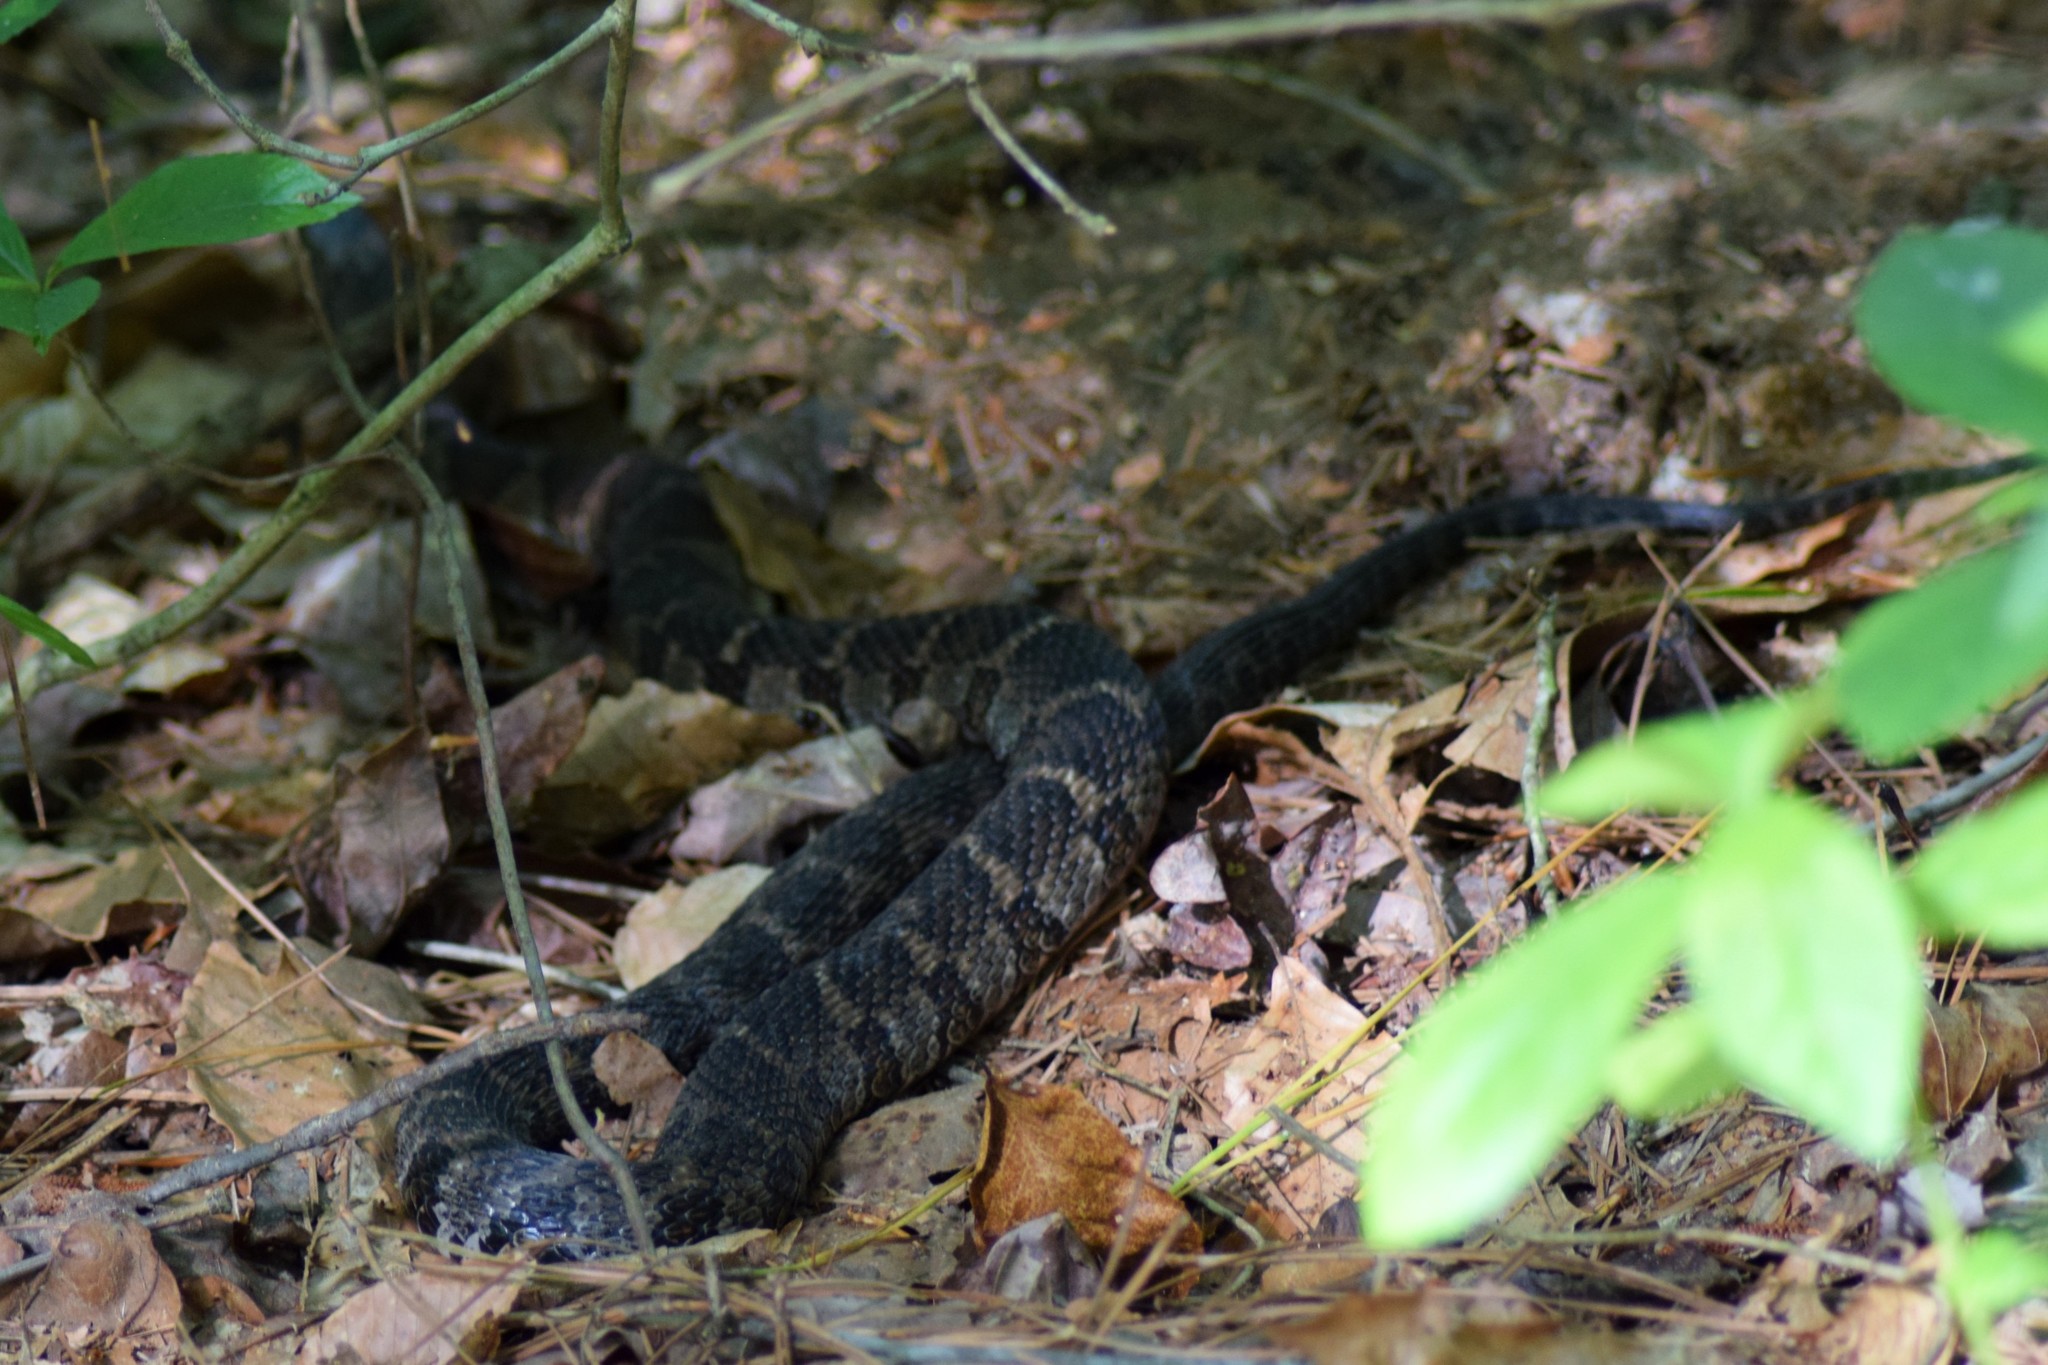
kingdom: Animalia
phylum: Chordata
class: Squamata
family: Colubridae
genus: Nerodia
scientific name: Nerodia sipedon
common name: Northern water snake
